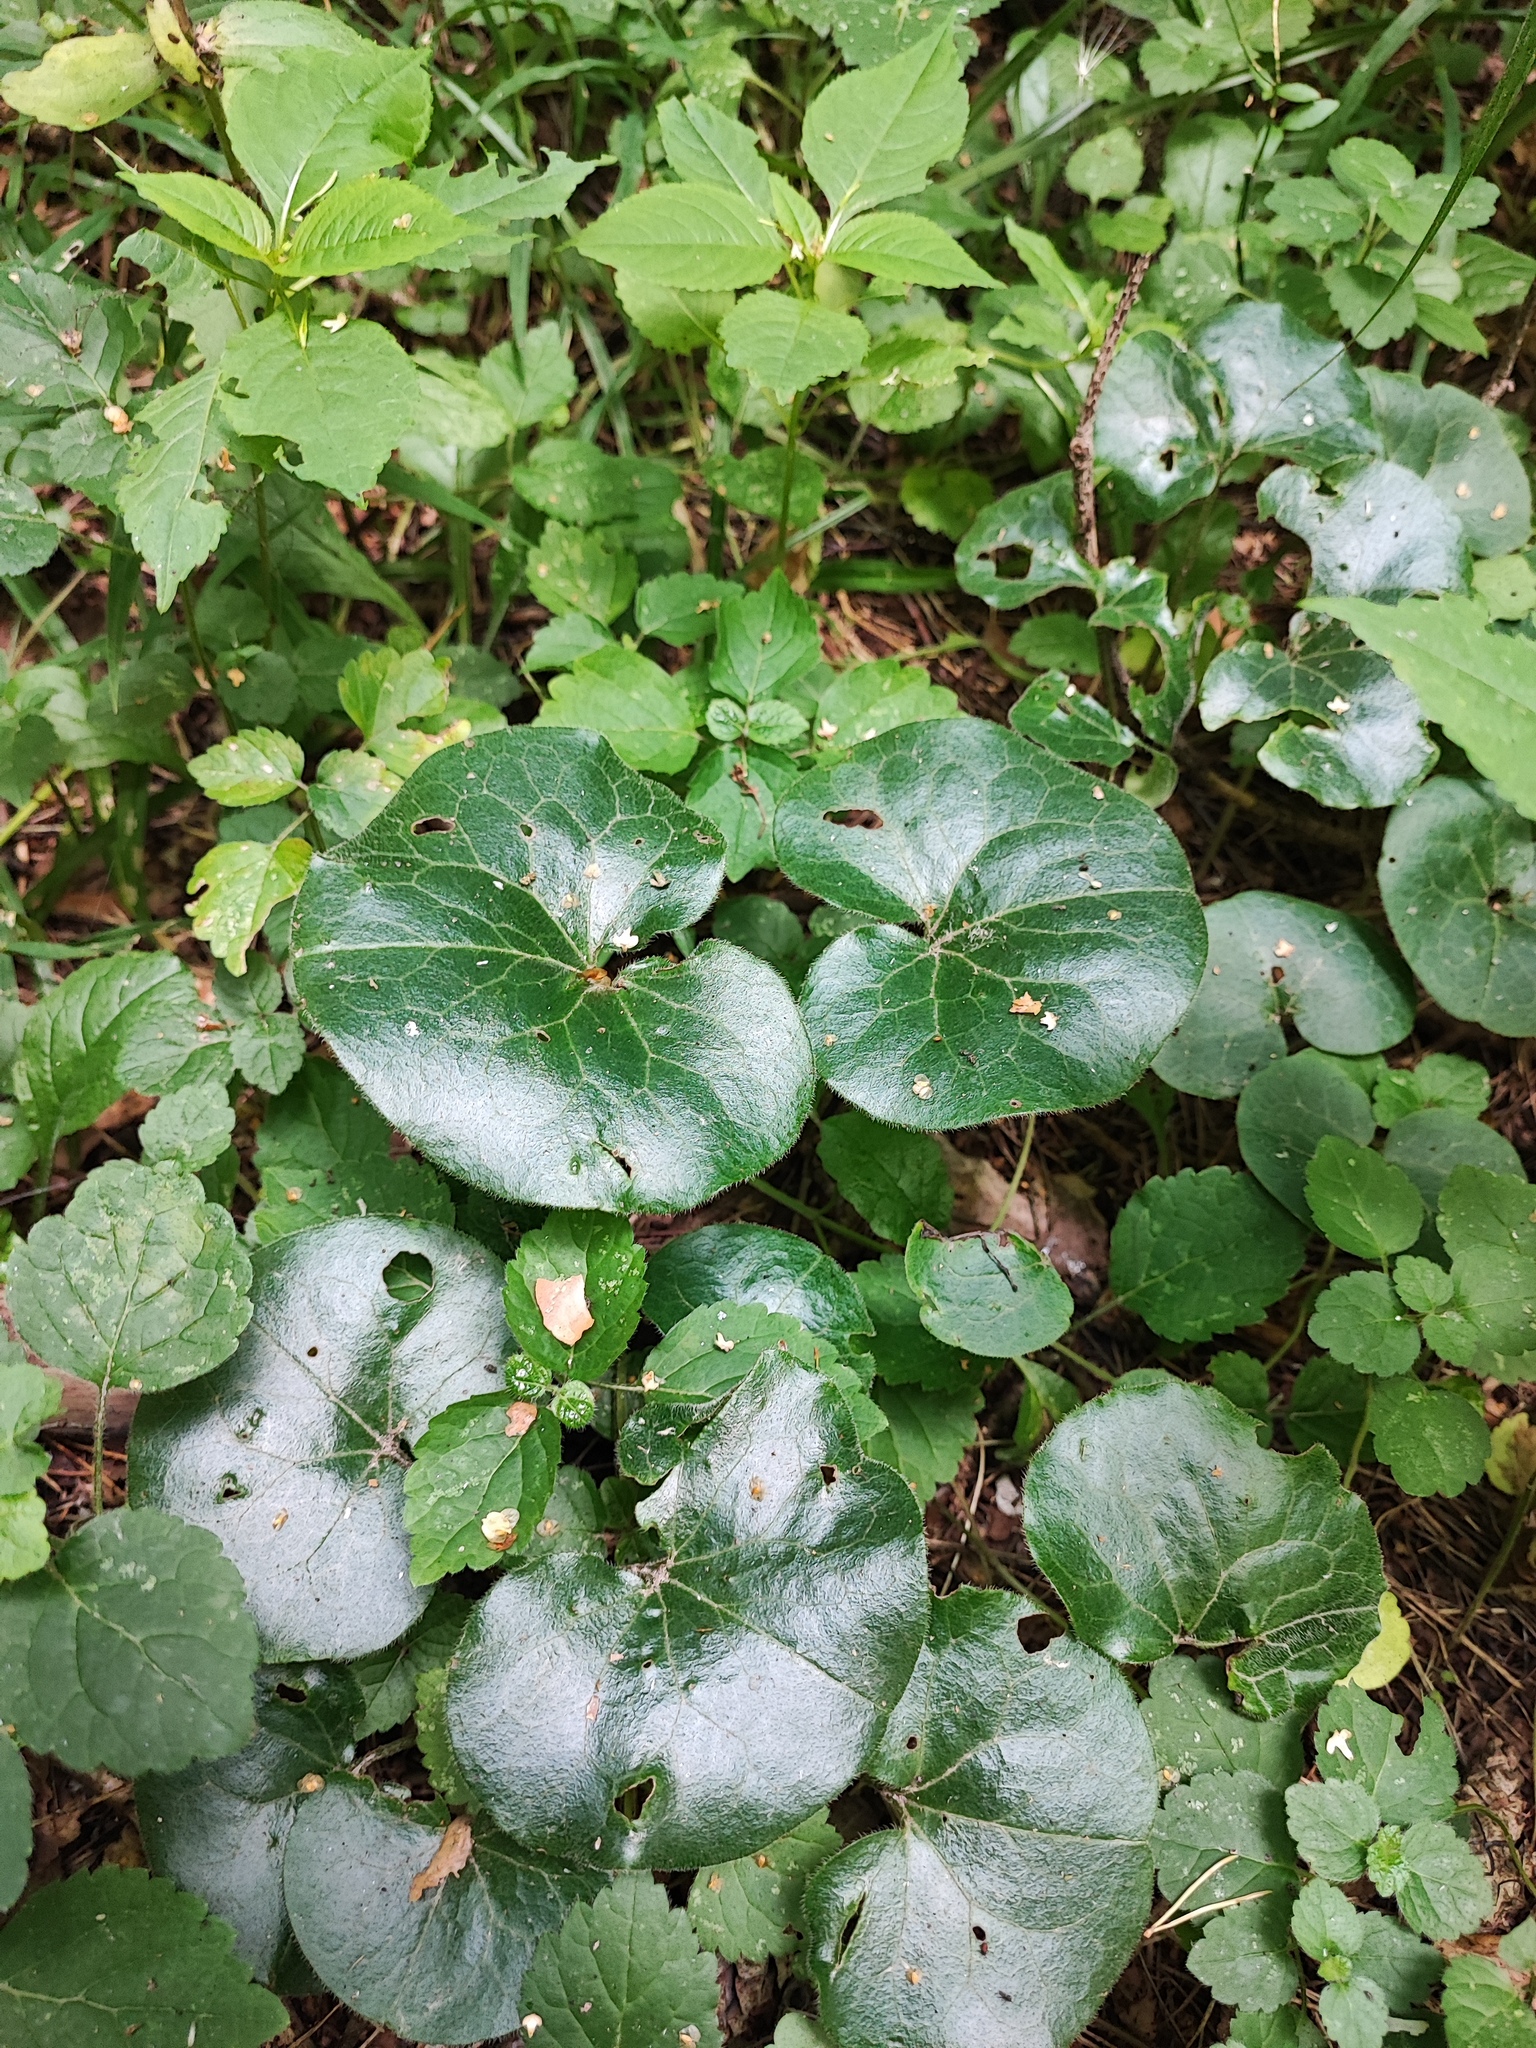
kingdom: Plantae
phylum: Tracheophyta
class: Magnoliopsida
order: Piperales
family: Aristolochiaceae
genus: Asarum
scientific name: Asarum europaeum
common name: Asarabacca
